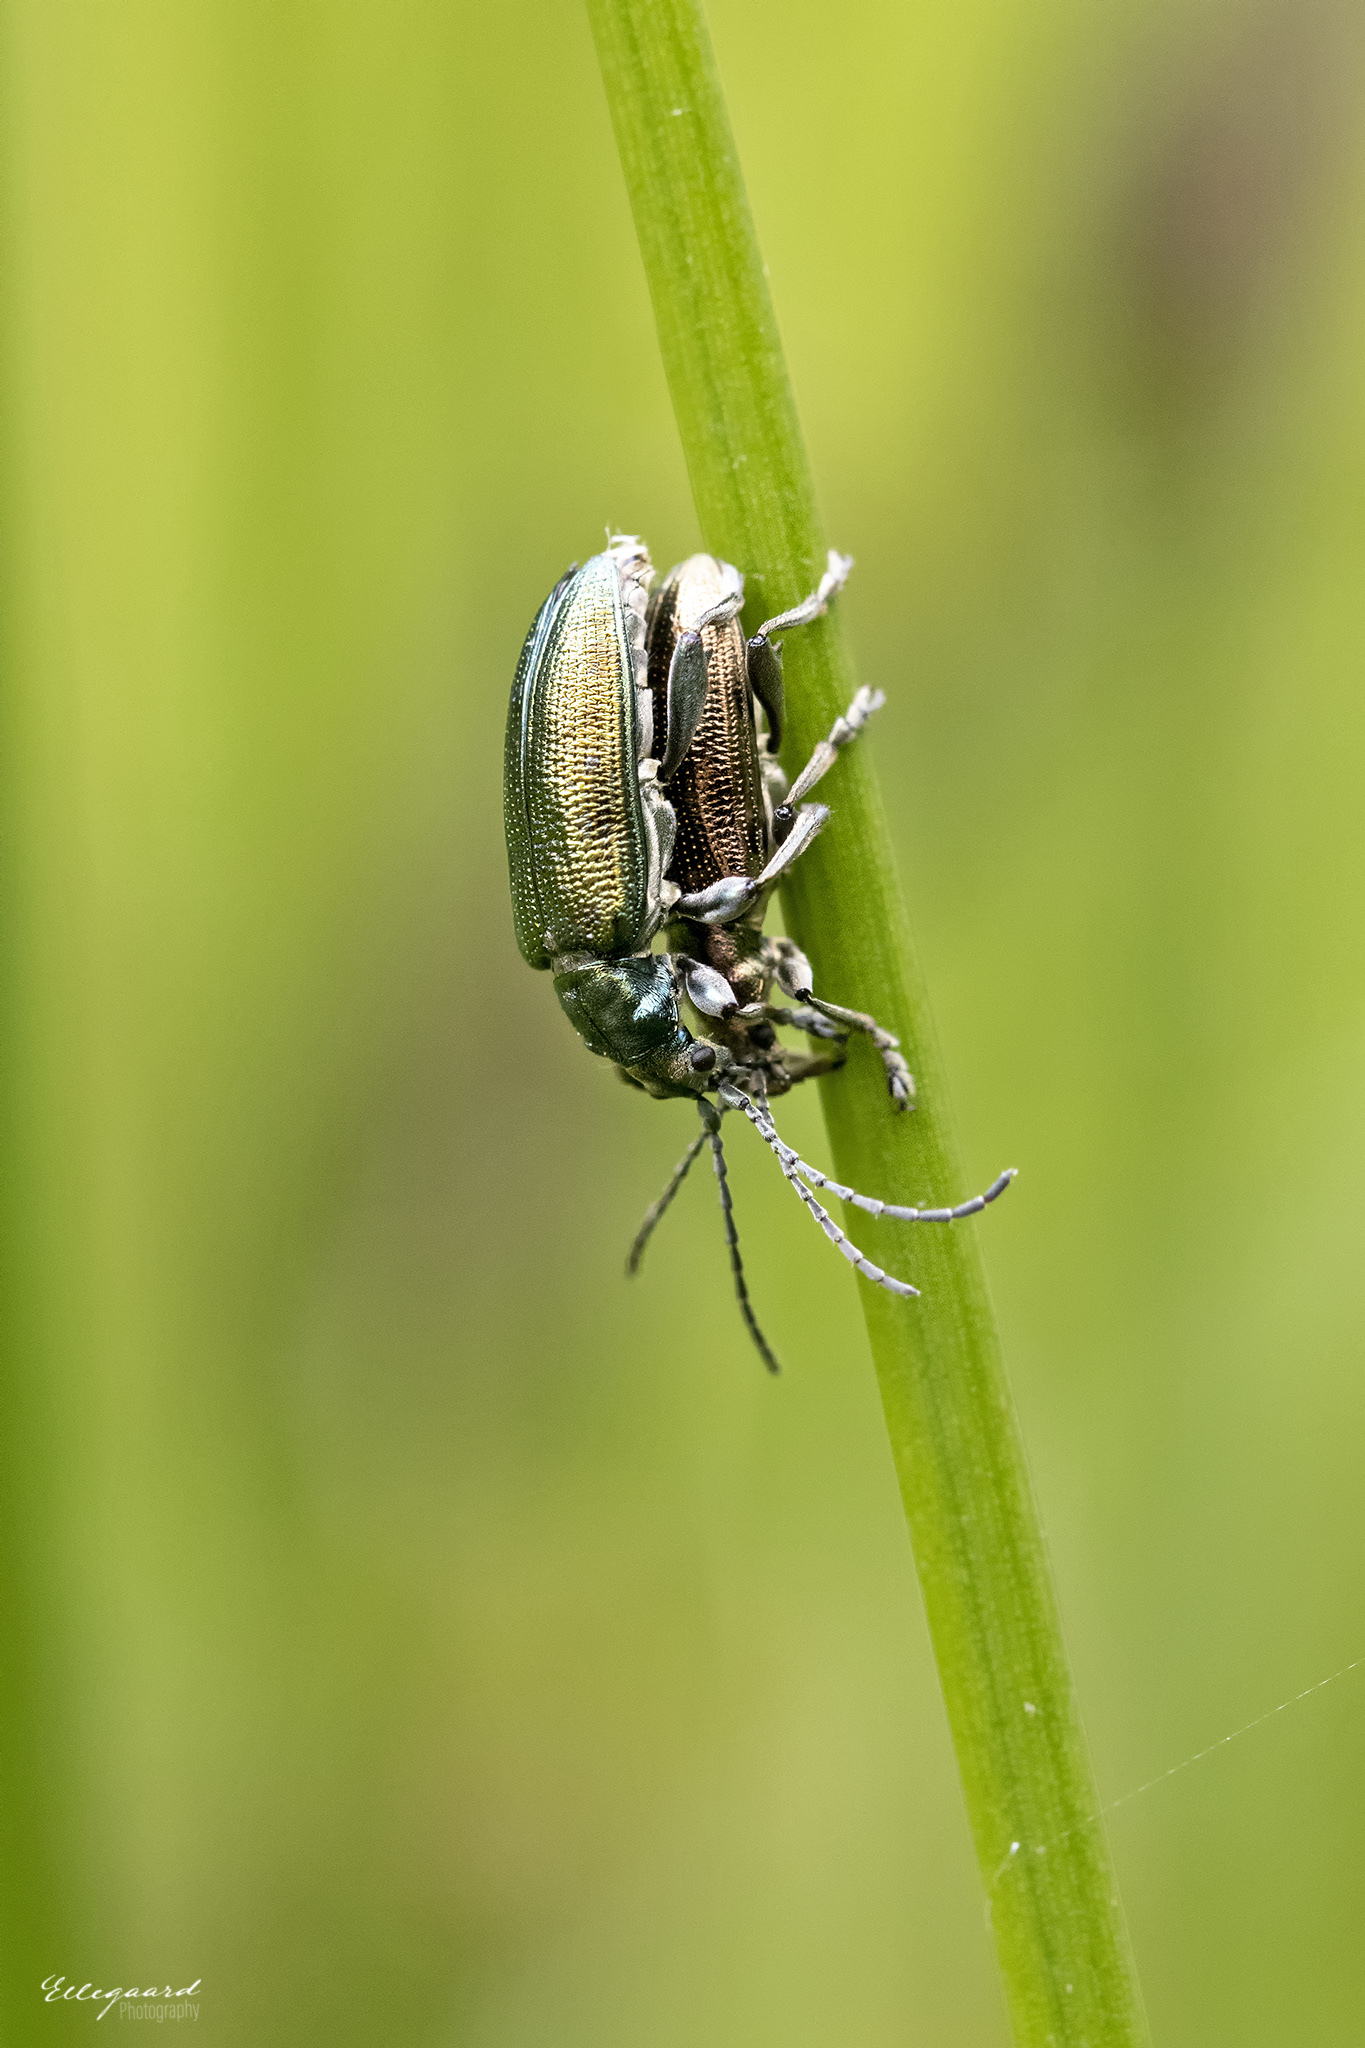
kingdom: Animalia
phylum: Arthropoda
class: Insecta
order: Coleoptera
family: Chrysomelidae
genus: Plateumaris
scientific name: Plateumaris sericea
